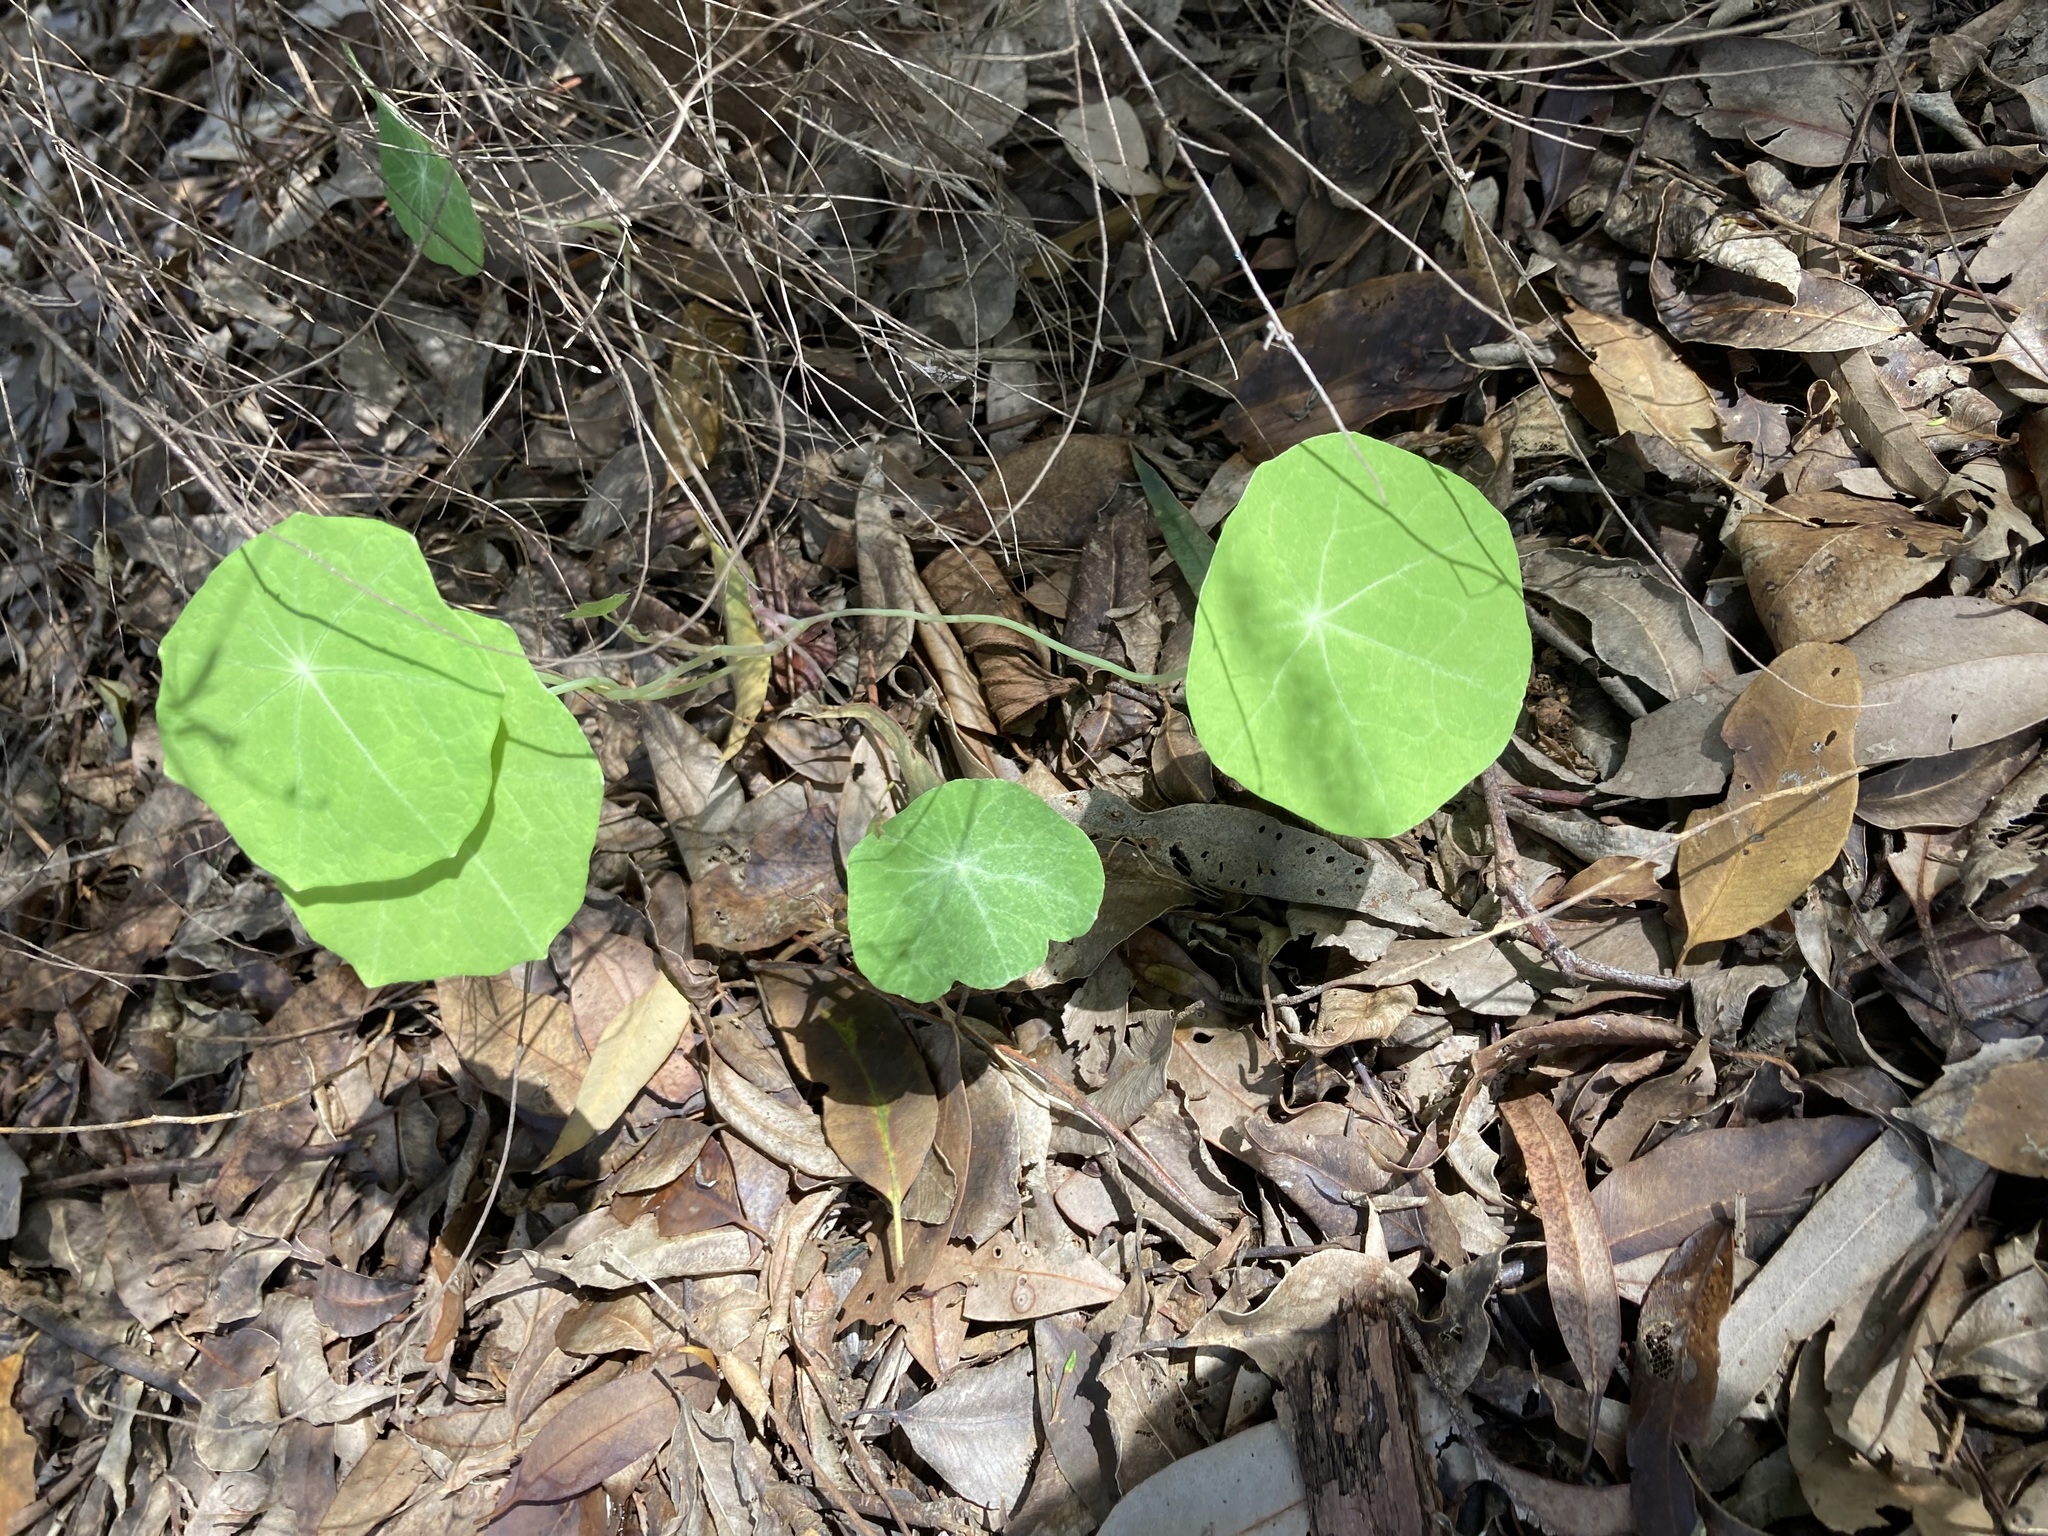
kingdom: Plantae
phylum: Tracheophyta
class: Magnoliopsida
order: Brassicales
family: Tropaeolaceae
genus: Tropaeolum
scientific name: Tropaeolum majus
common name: Nasturtium
